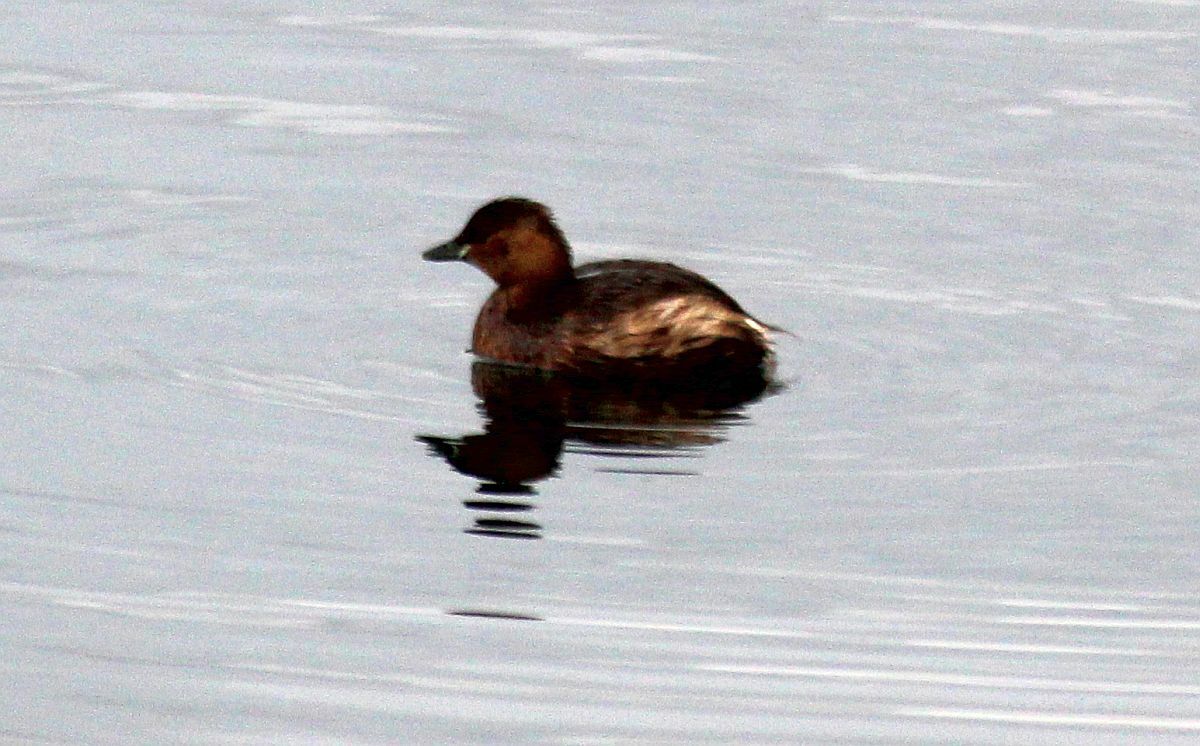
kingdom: Animalia
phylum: Chordata
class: Aves
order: Podicipediformes
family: Podicipedidae
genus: Tachybaptus
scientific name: Tachybaptus ruficollis
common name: Little grebe
